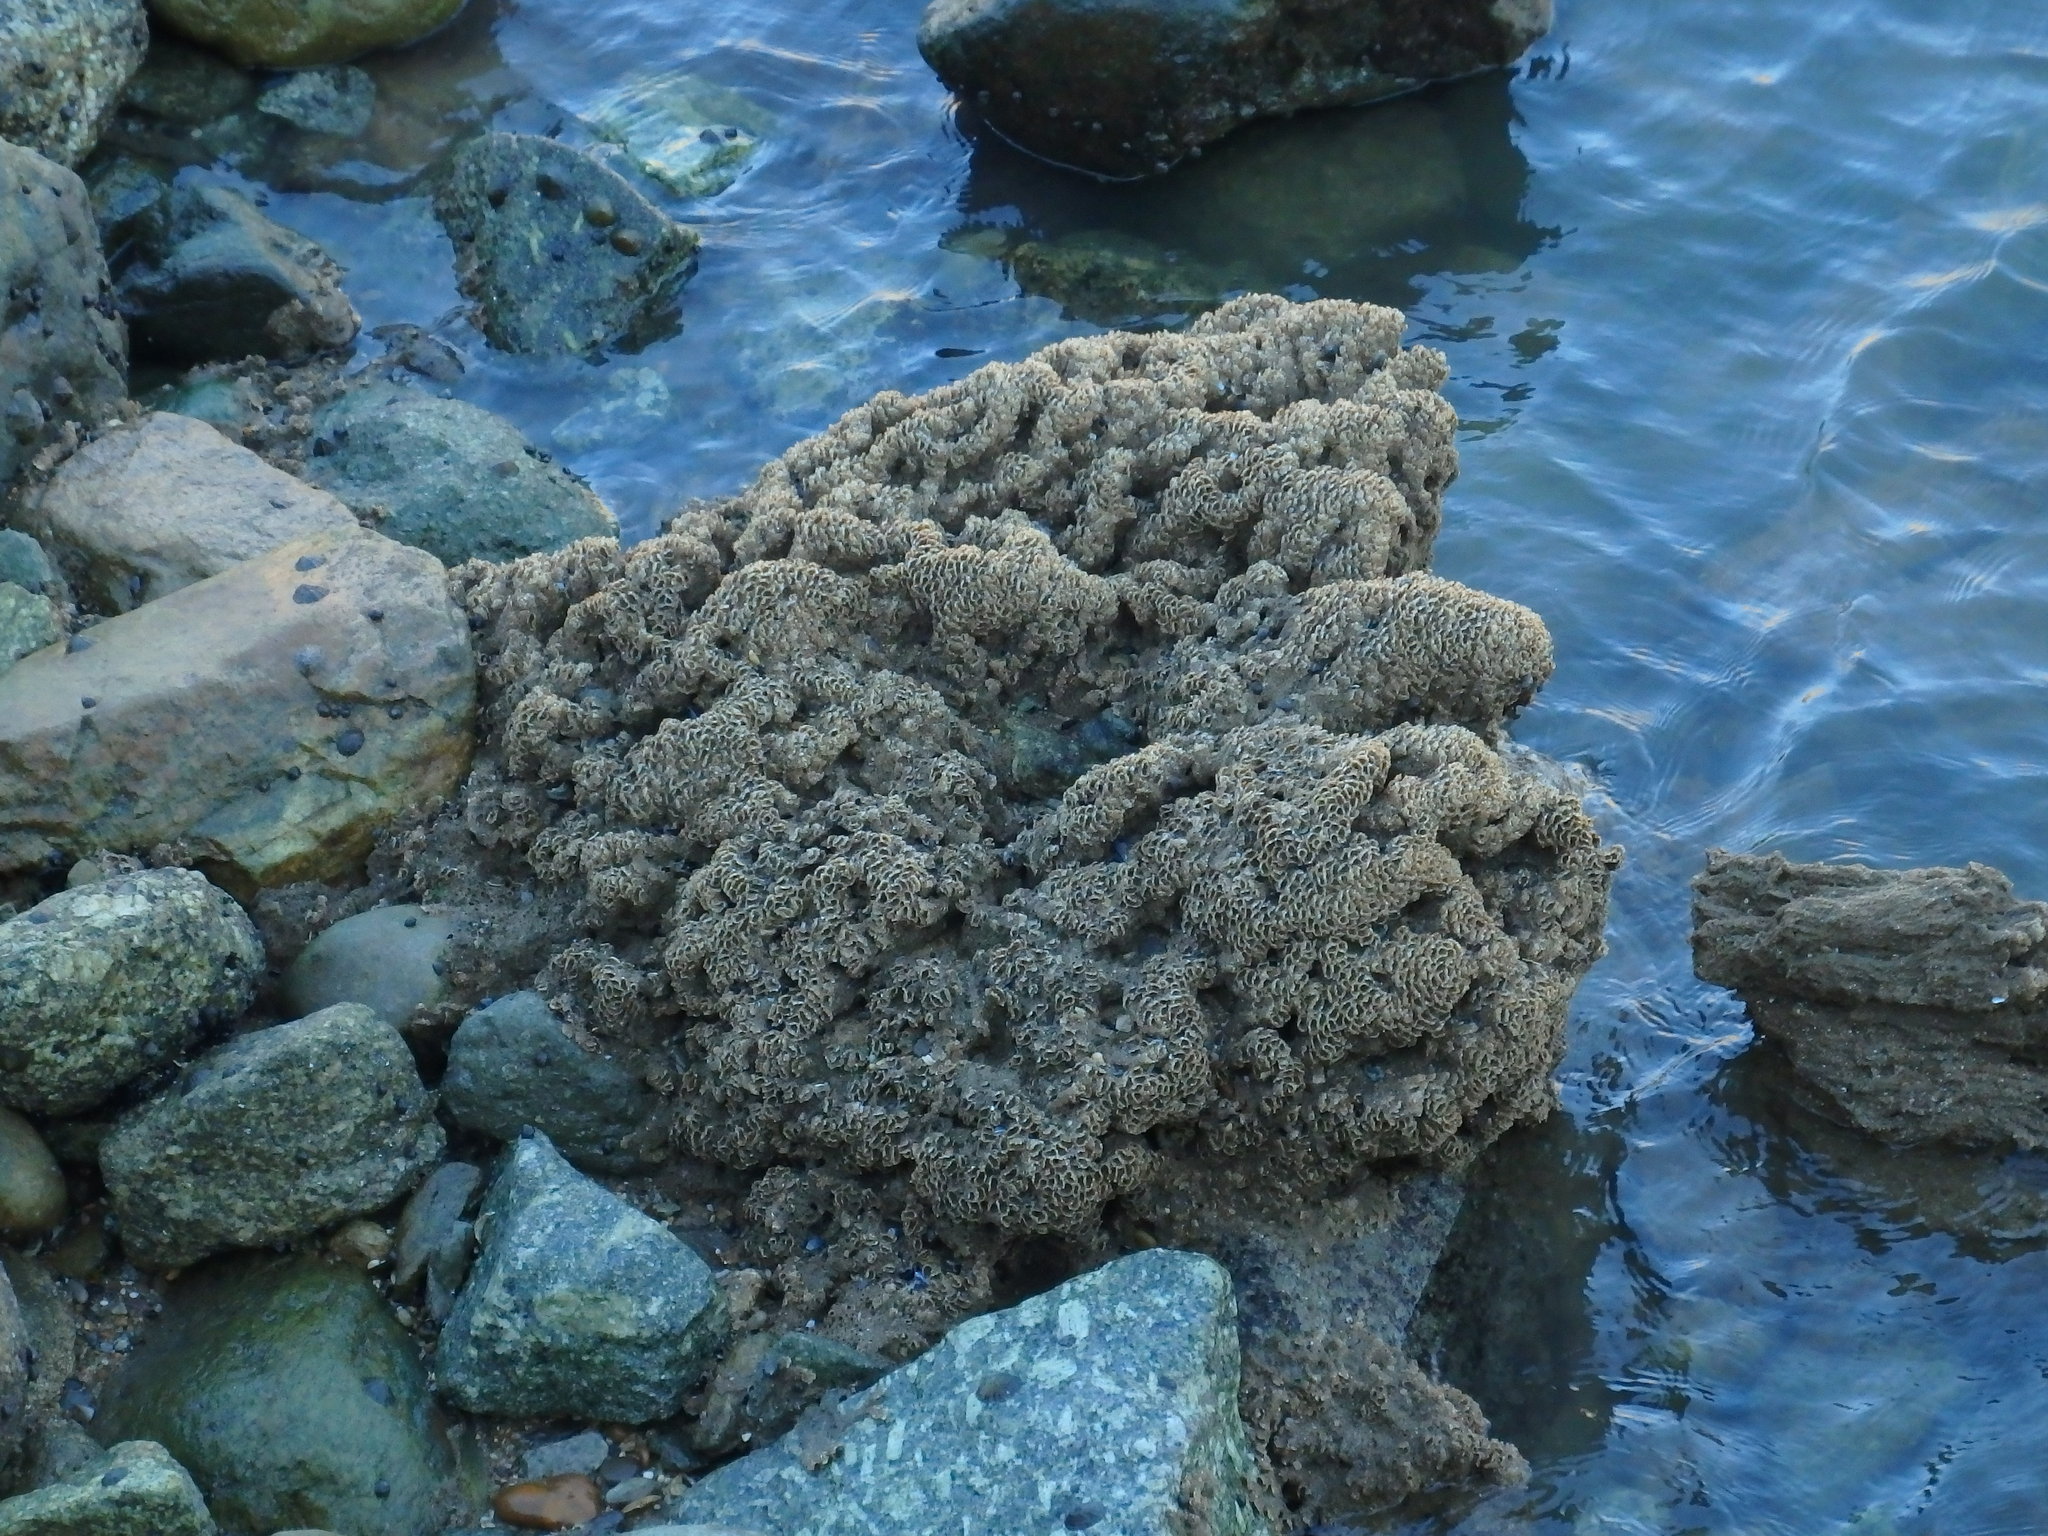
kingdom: Animalia
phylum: Annelida
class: Polychaeta
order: Sabellida
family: Sabellariidae
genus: Sabellaria
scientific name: Sabellaria alveolata
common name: Honeycomb worm
